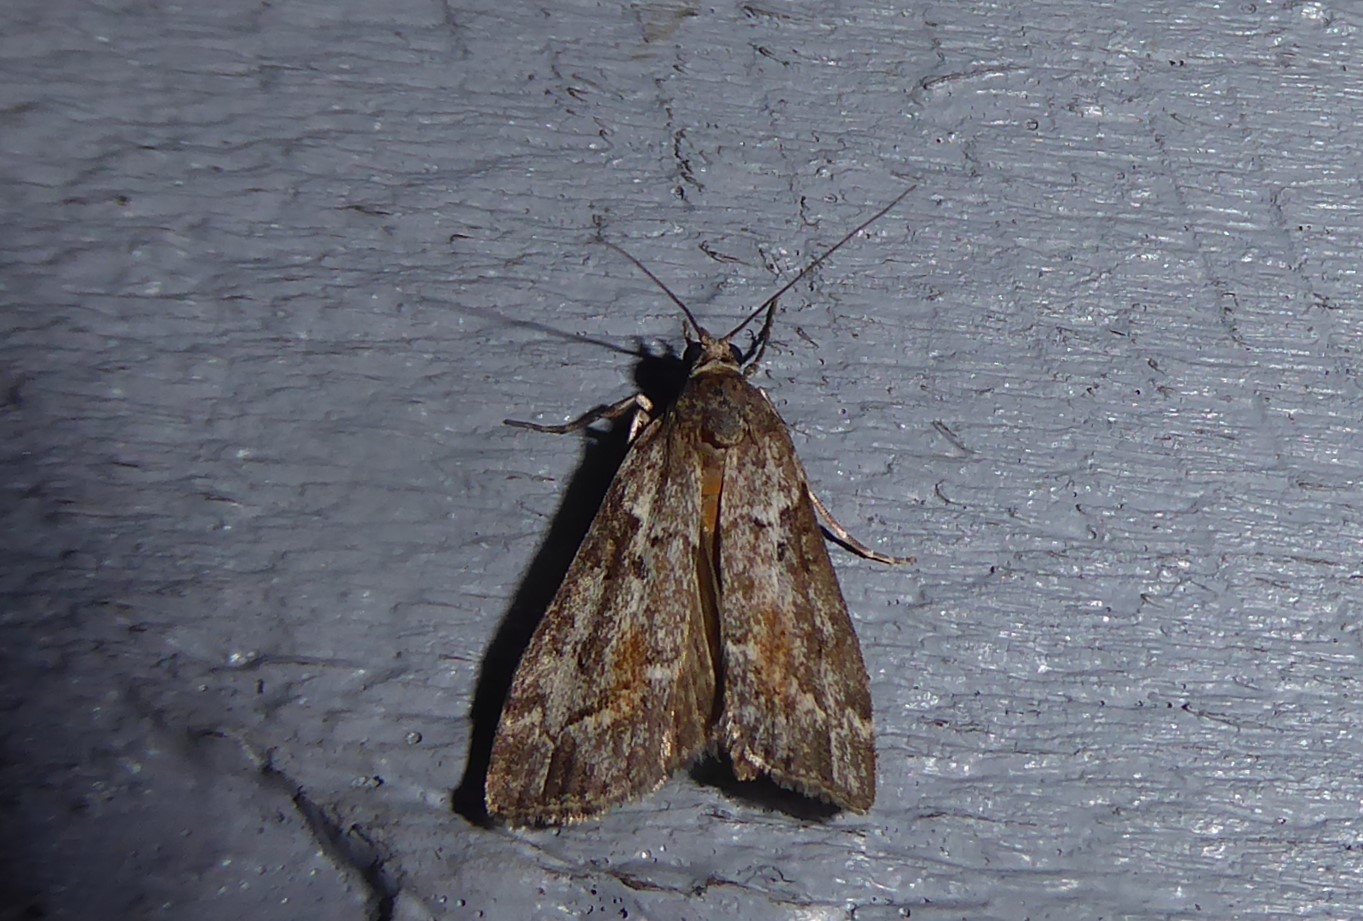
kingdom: Animalia
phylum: Arthropoda
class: Insecta
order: Lepidoptera
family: Crambidae
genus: Eudonia
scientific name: Eudonia submarginalis
